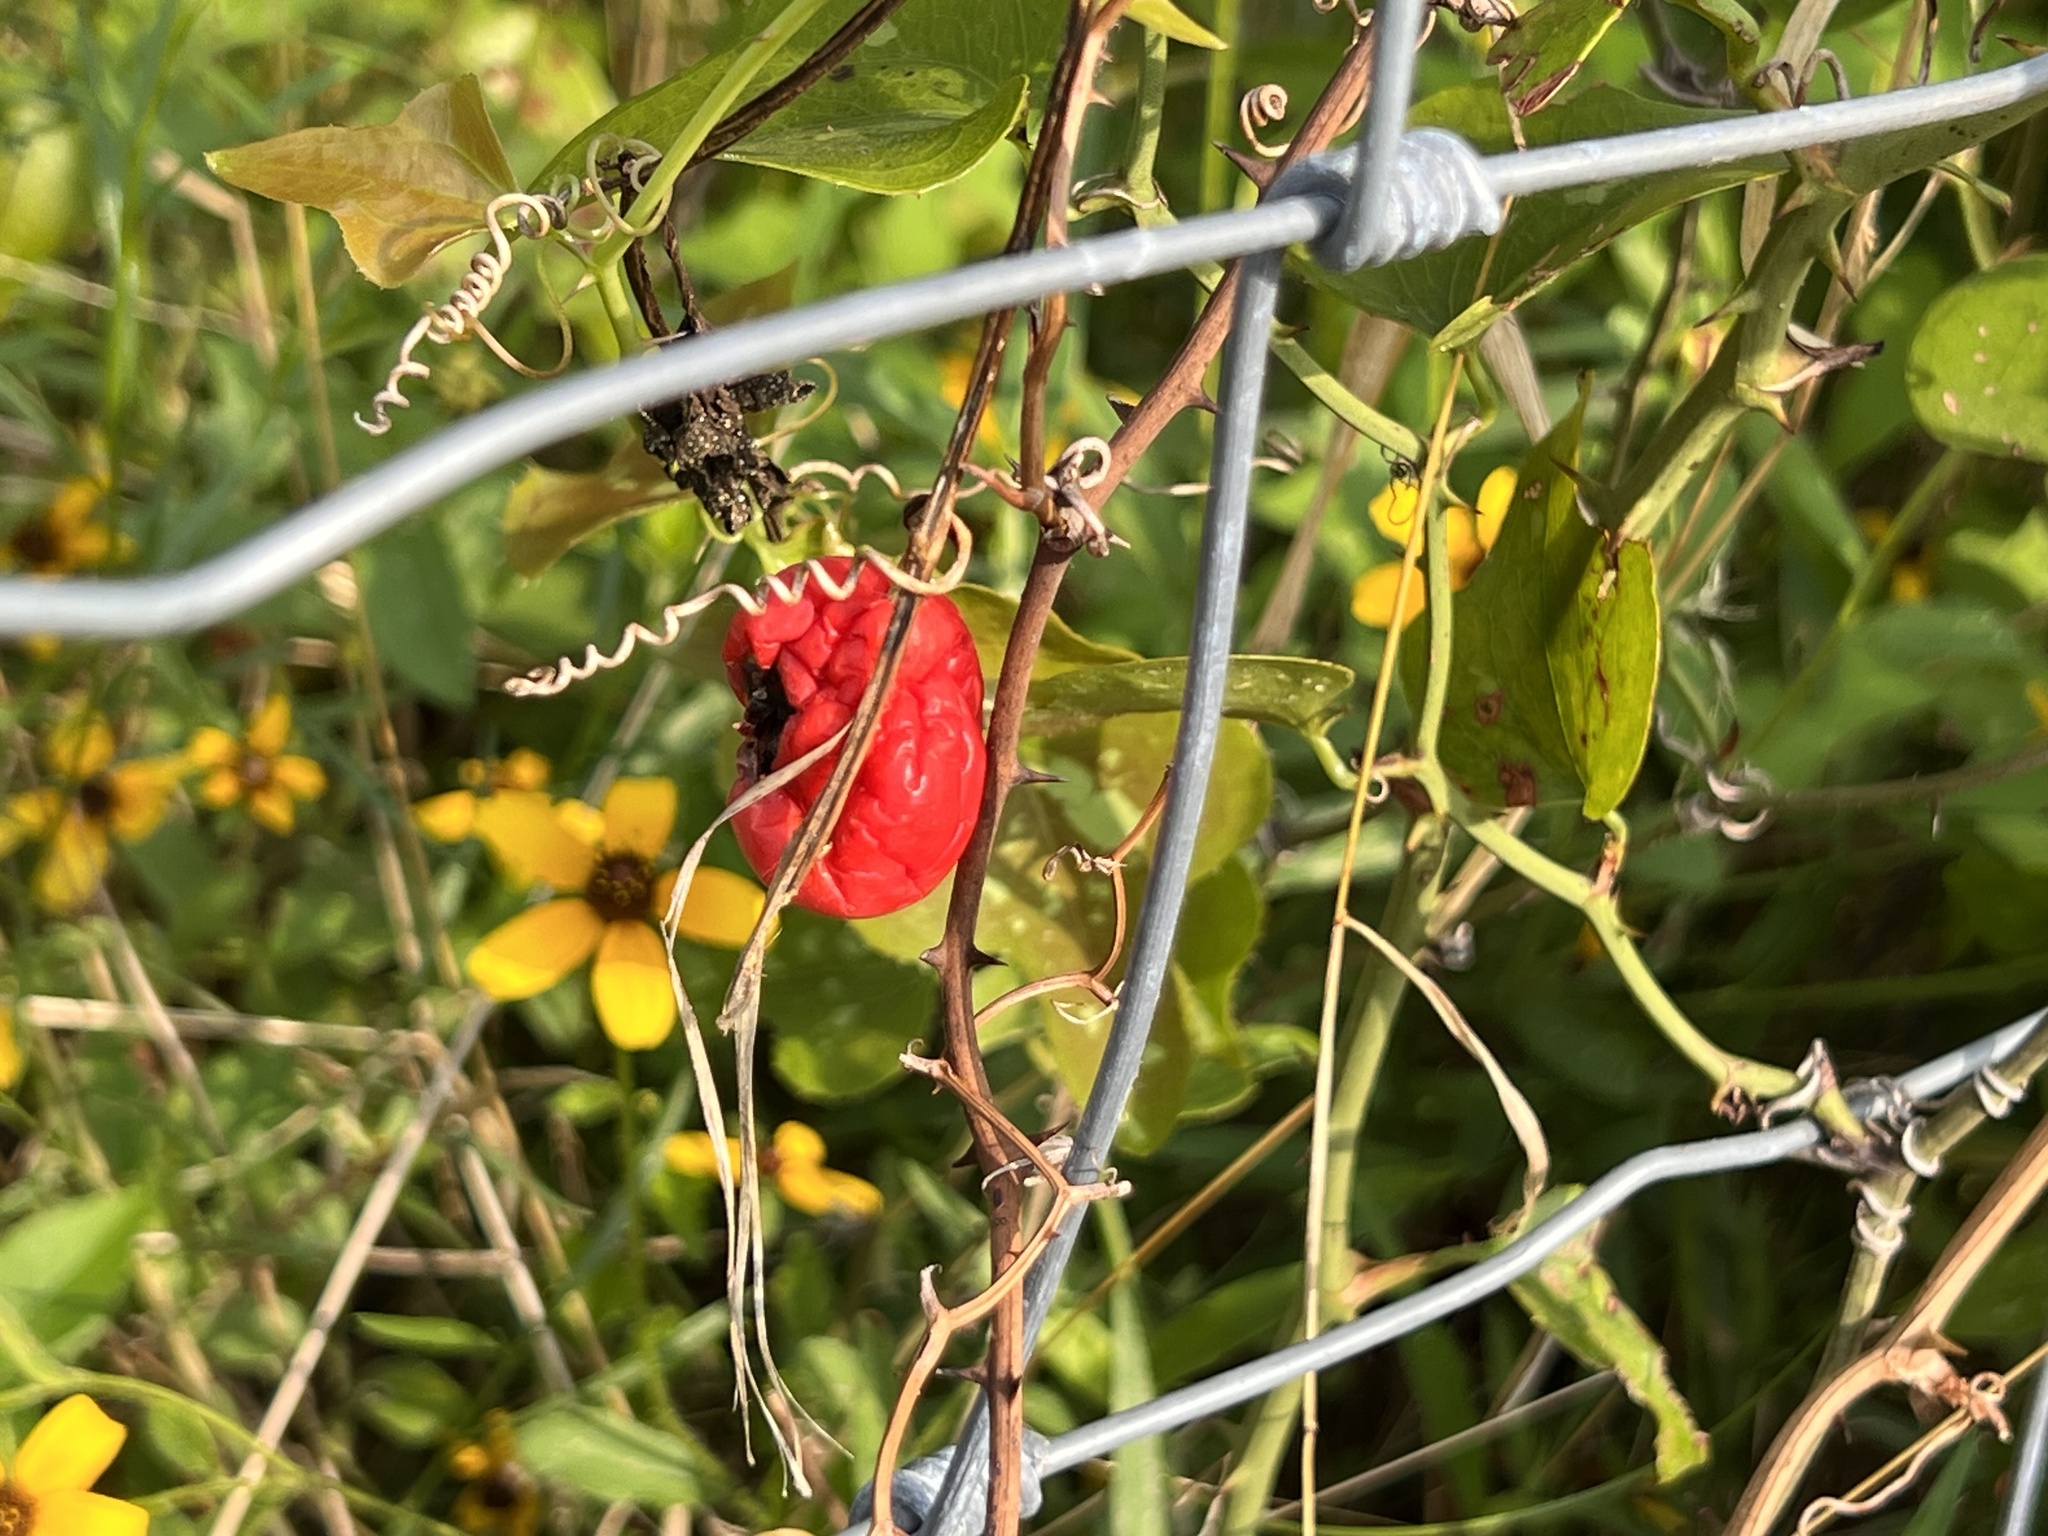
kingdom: Plantae
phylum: Tracheophyta
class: Magnoliopsida
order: Cucurbitales
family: Cucurbitaceae
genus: Ibervillea
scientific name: Ibervillea lindheimeri
